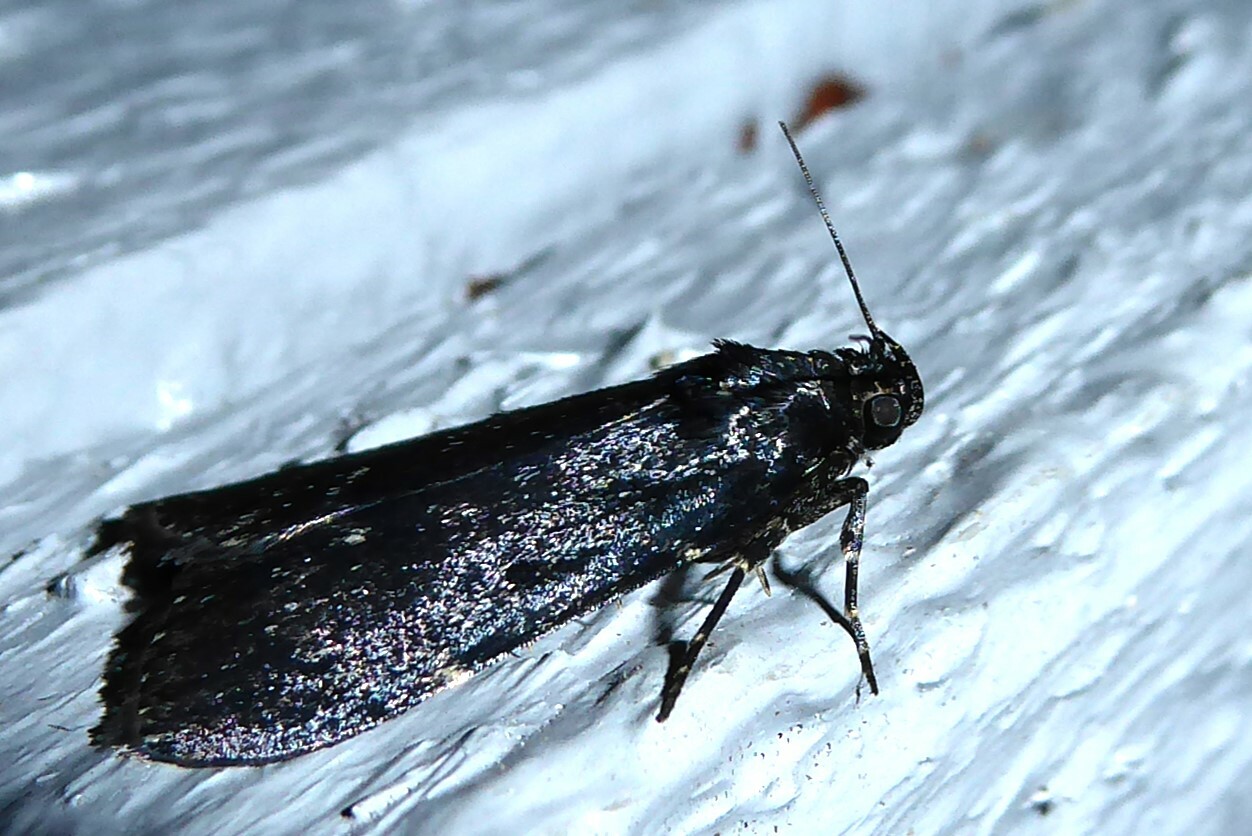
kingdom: Animalia
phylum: Arthropoda
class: Insecta
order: Lepidoptera
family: Pyralidae
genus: Stericta
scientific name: Stericta carbonalis
